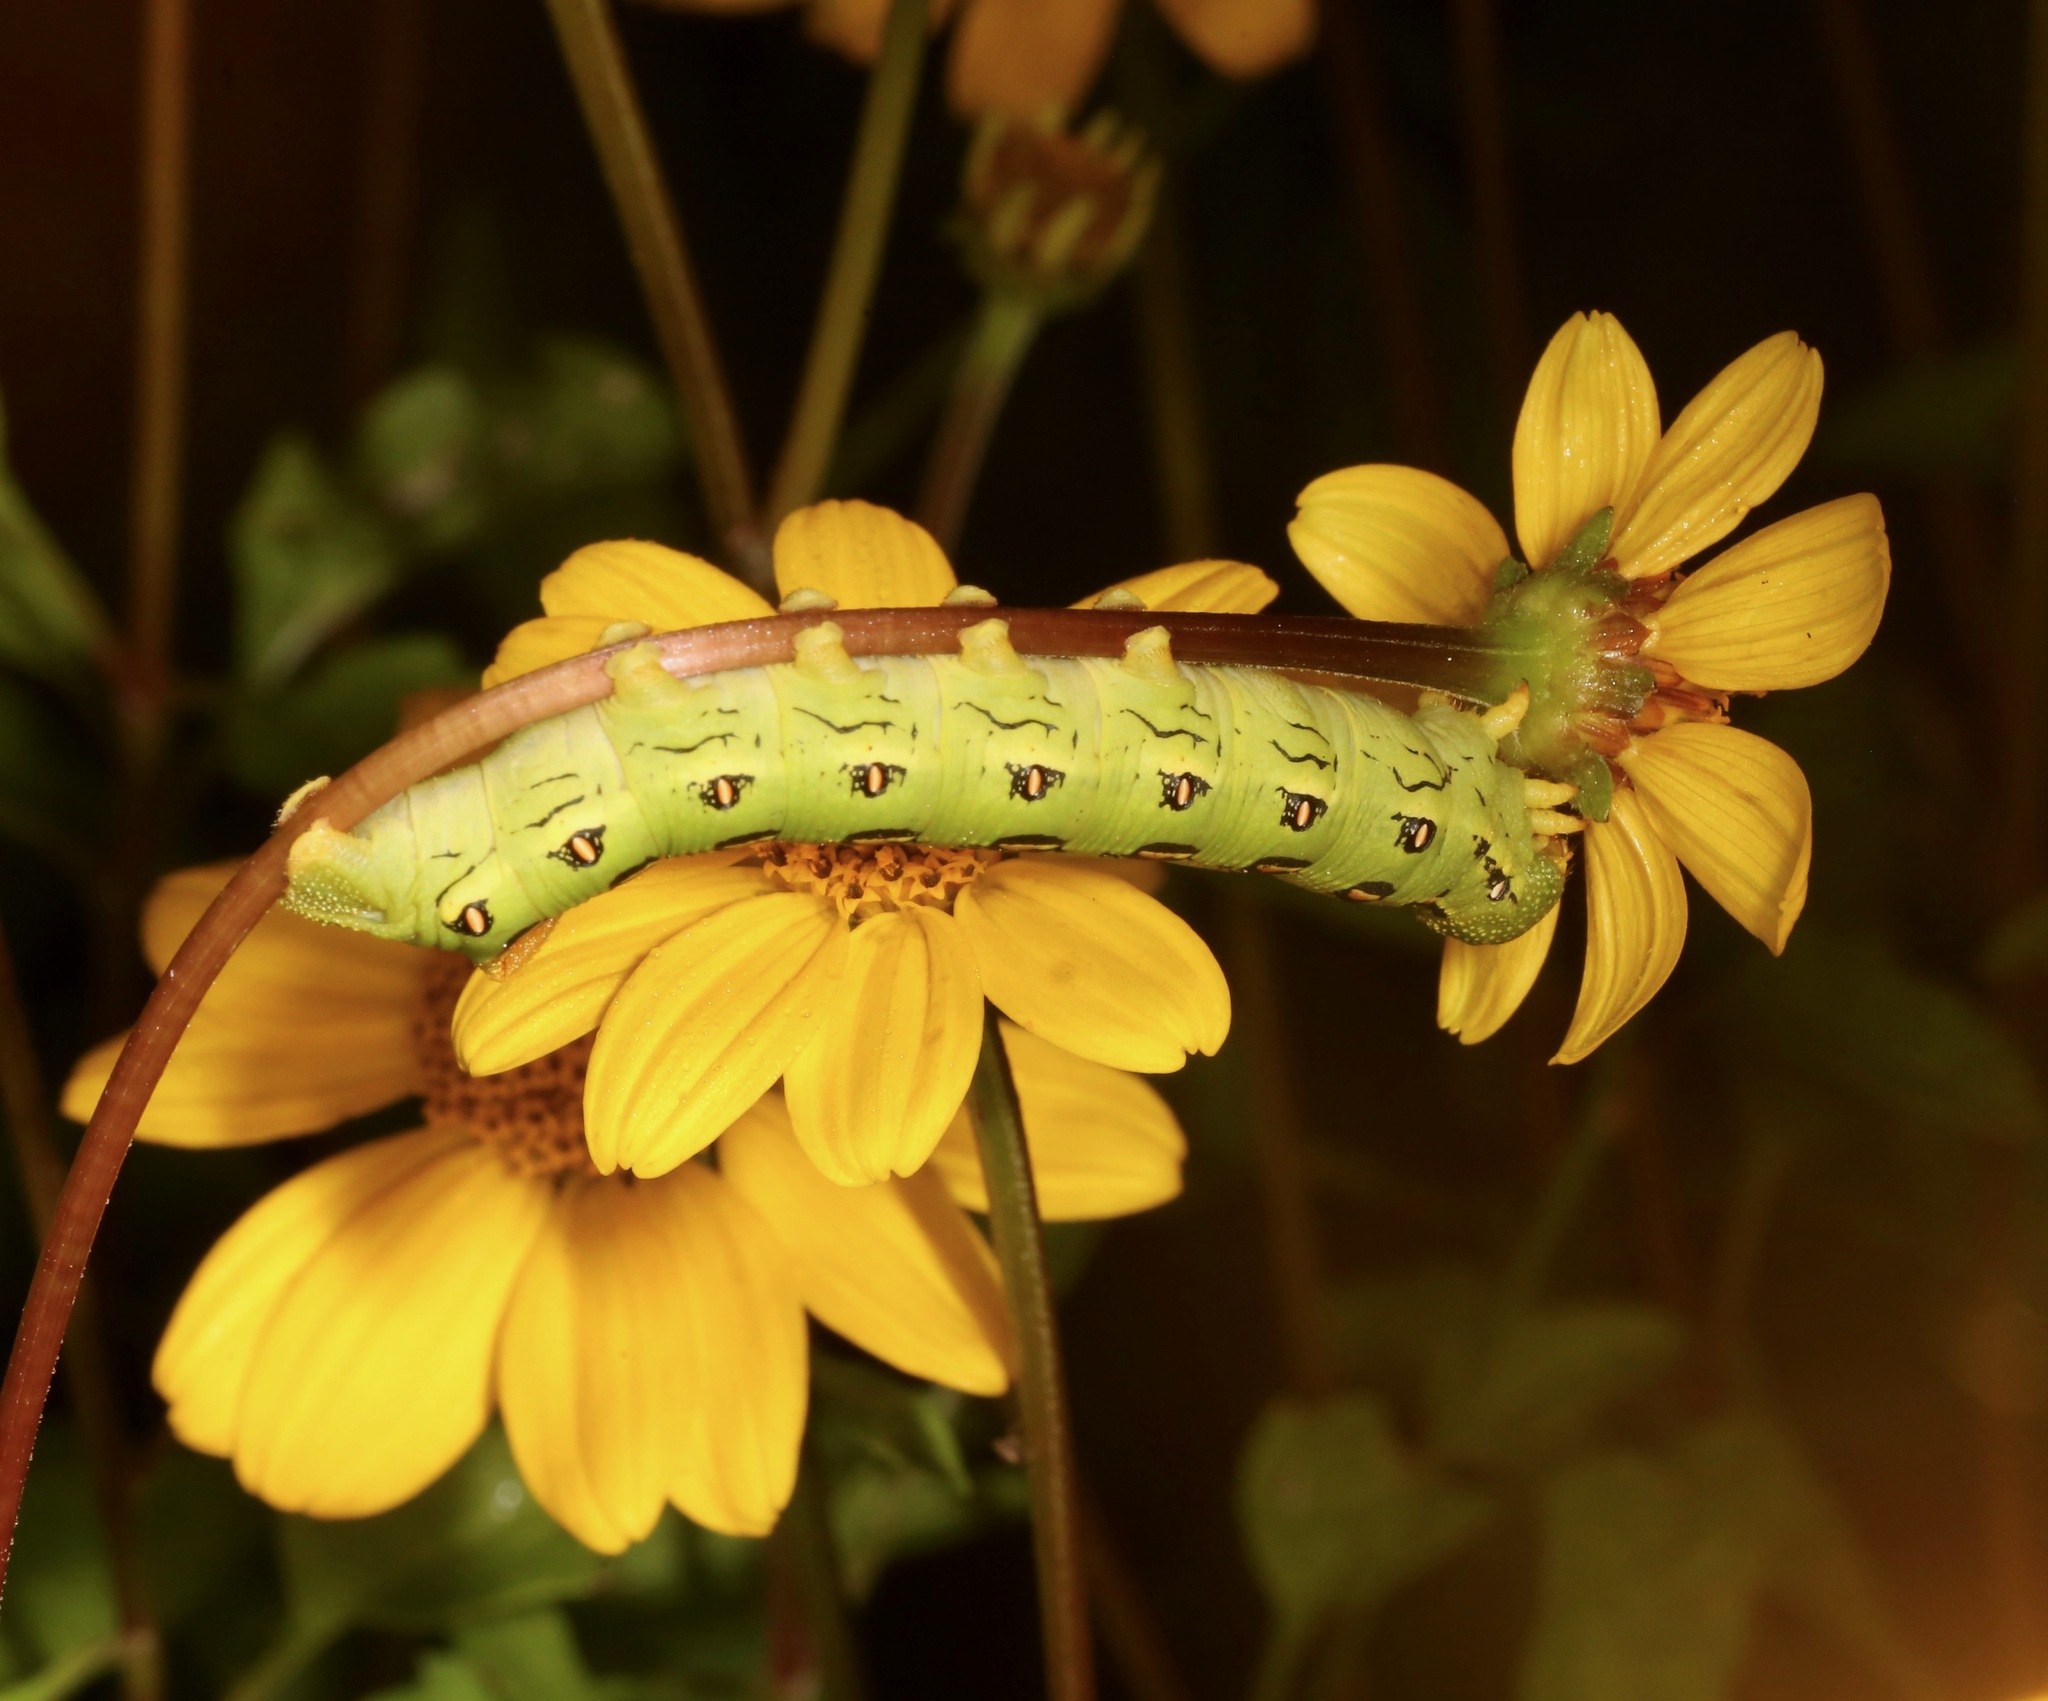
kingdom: Animalia
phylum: Arthropoda
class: Insecta
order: Lepidoptera
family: Sphingidae
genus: Hyles
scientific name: Hyles lineata
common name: White-lined sphinx
